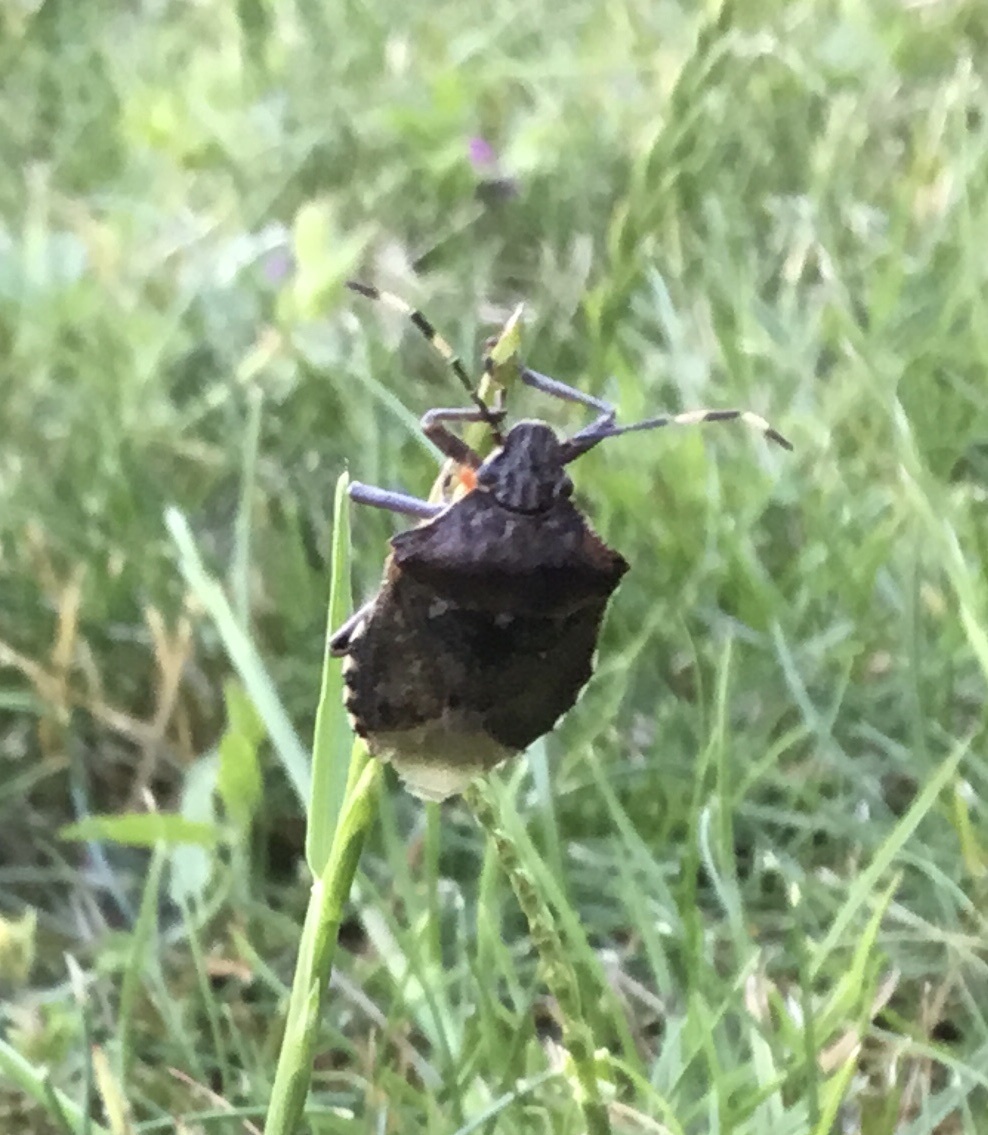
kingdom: Animalia
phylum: Arthropoda
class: Insecta
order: Hemiptera
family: Pentatomidae
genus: Rhaphigaster
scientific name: Rhaphigaster nebulosa
